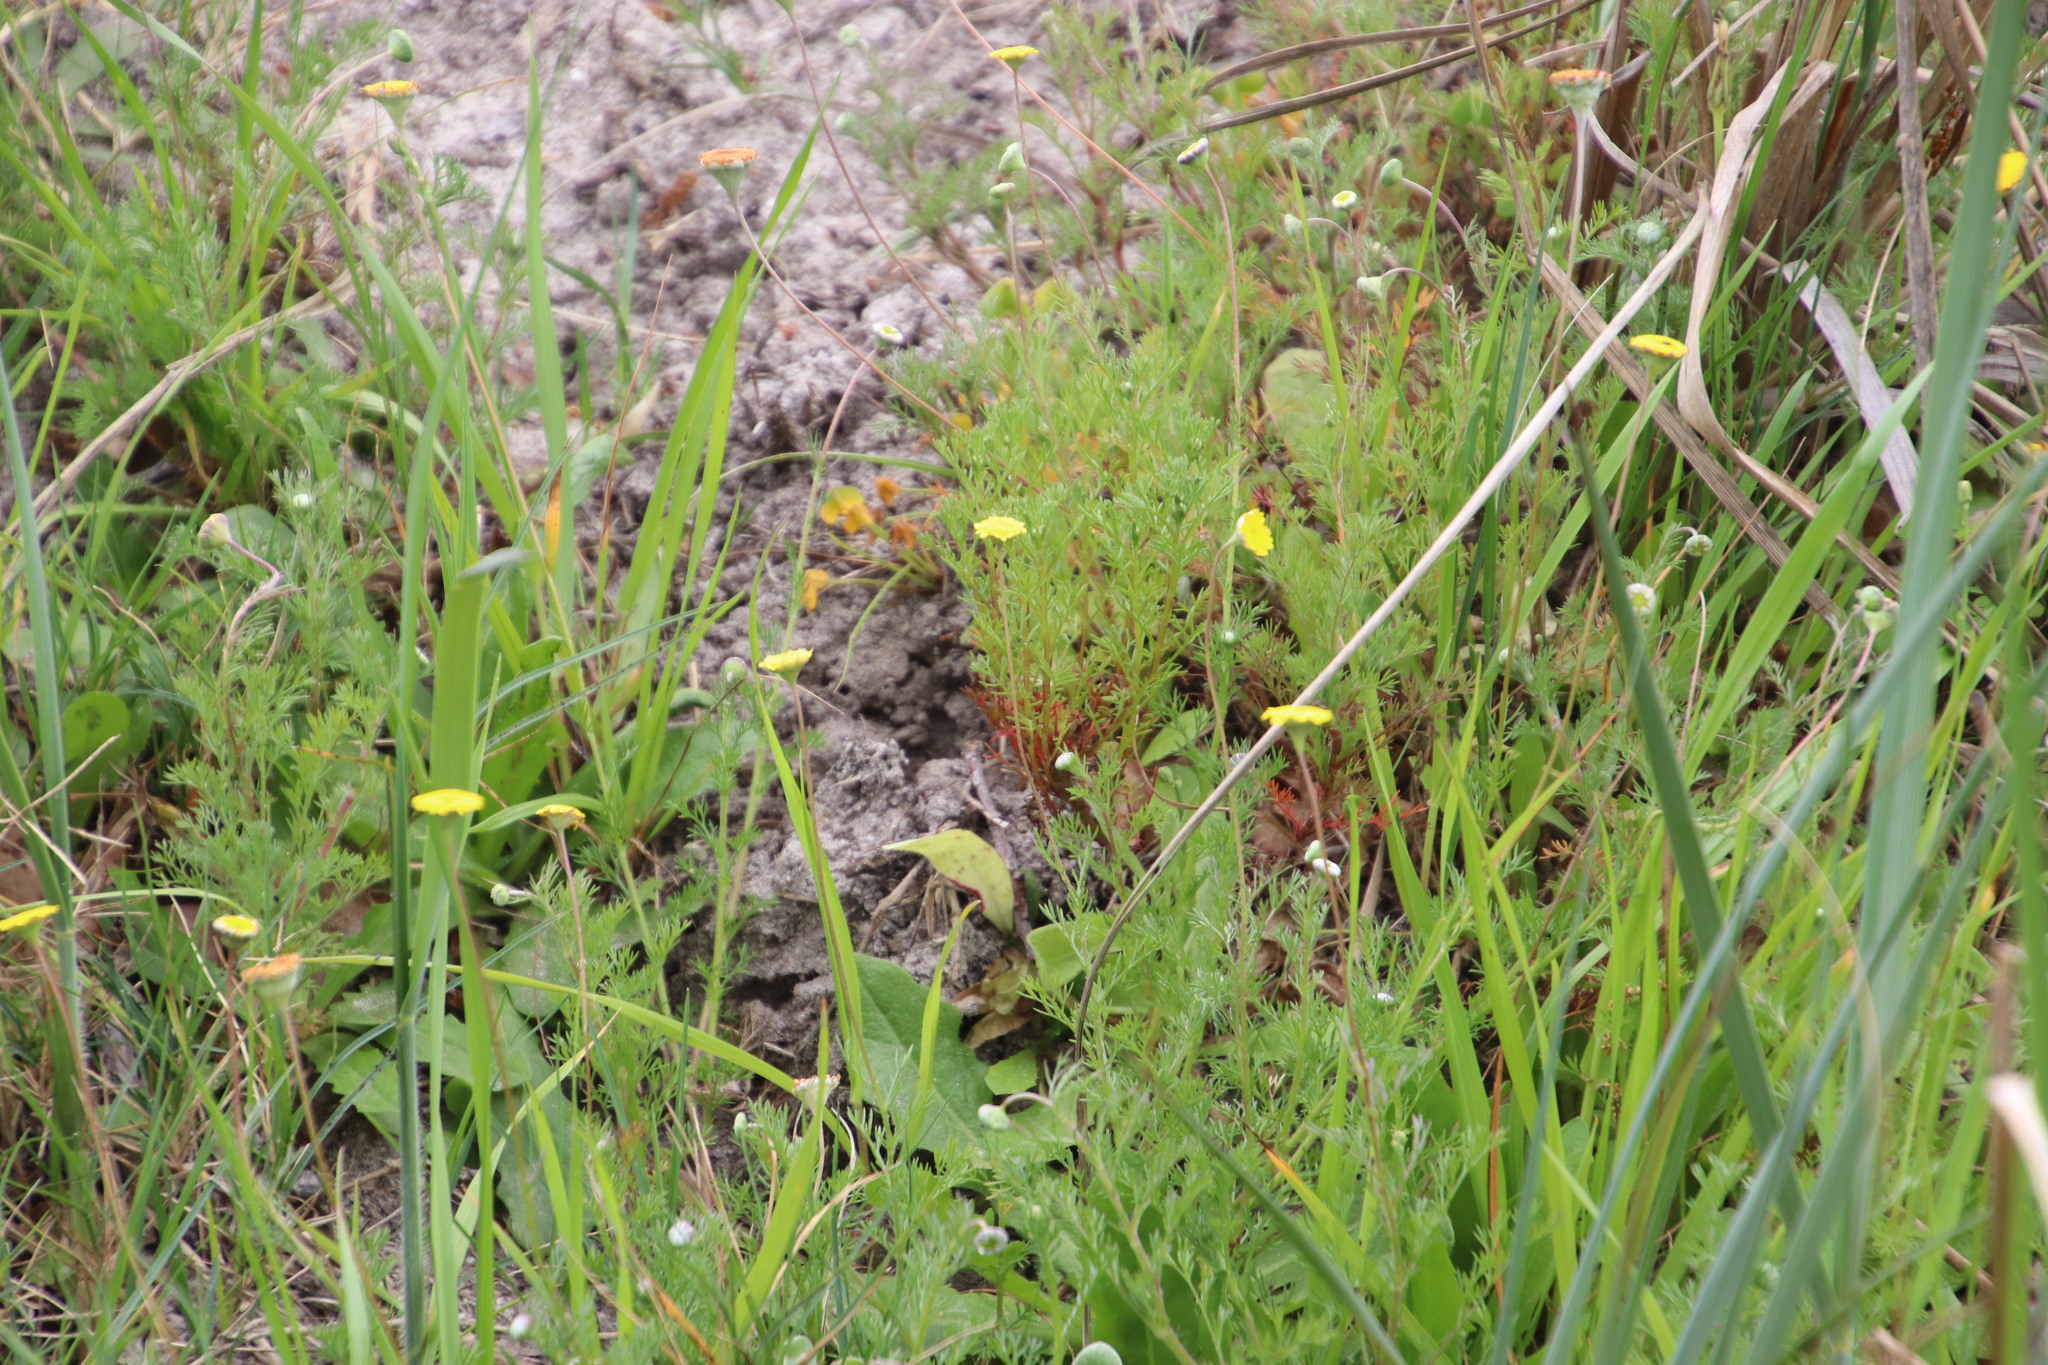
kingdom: Plantae
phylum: Tracheophyta
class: Magnoliopsida
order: Asterales
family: Asteraceae
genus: Cotula
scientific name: Cotula pruinosa
